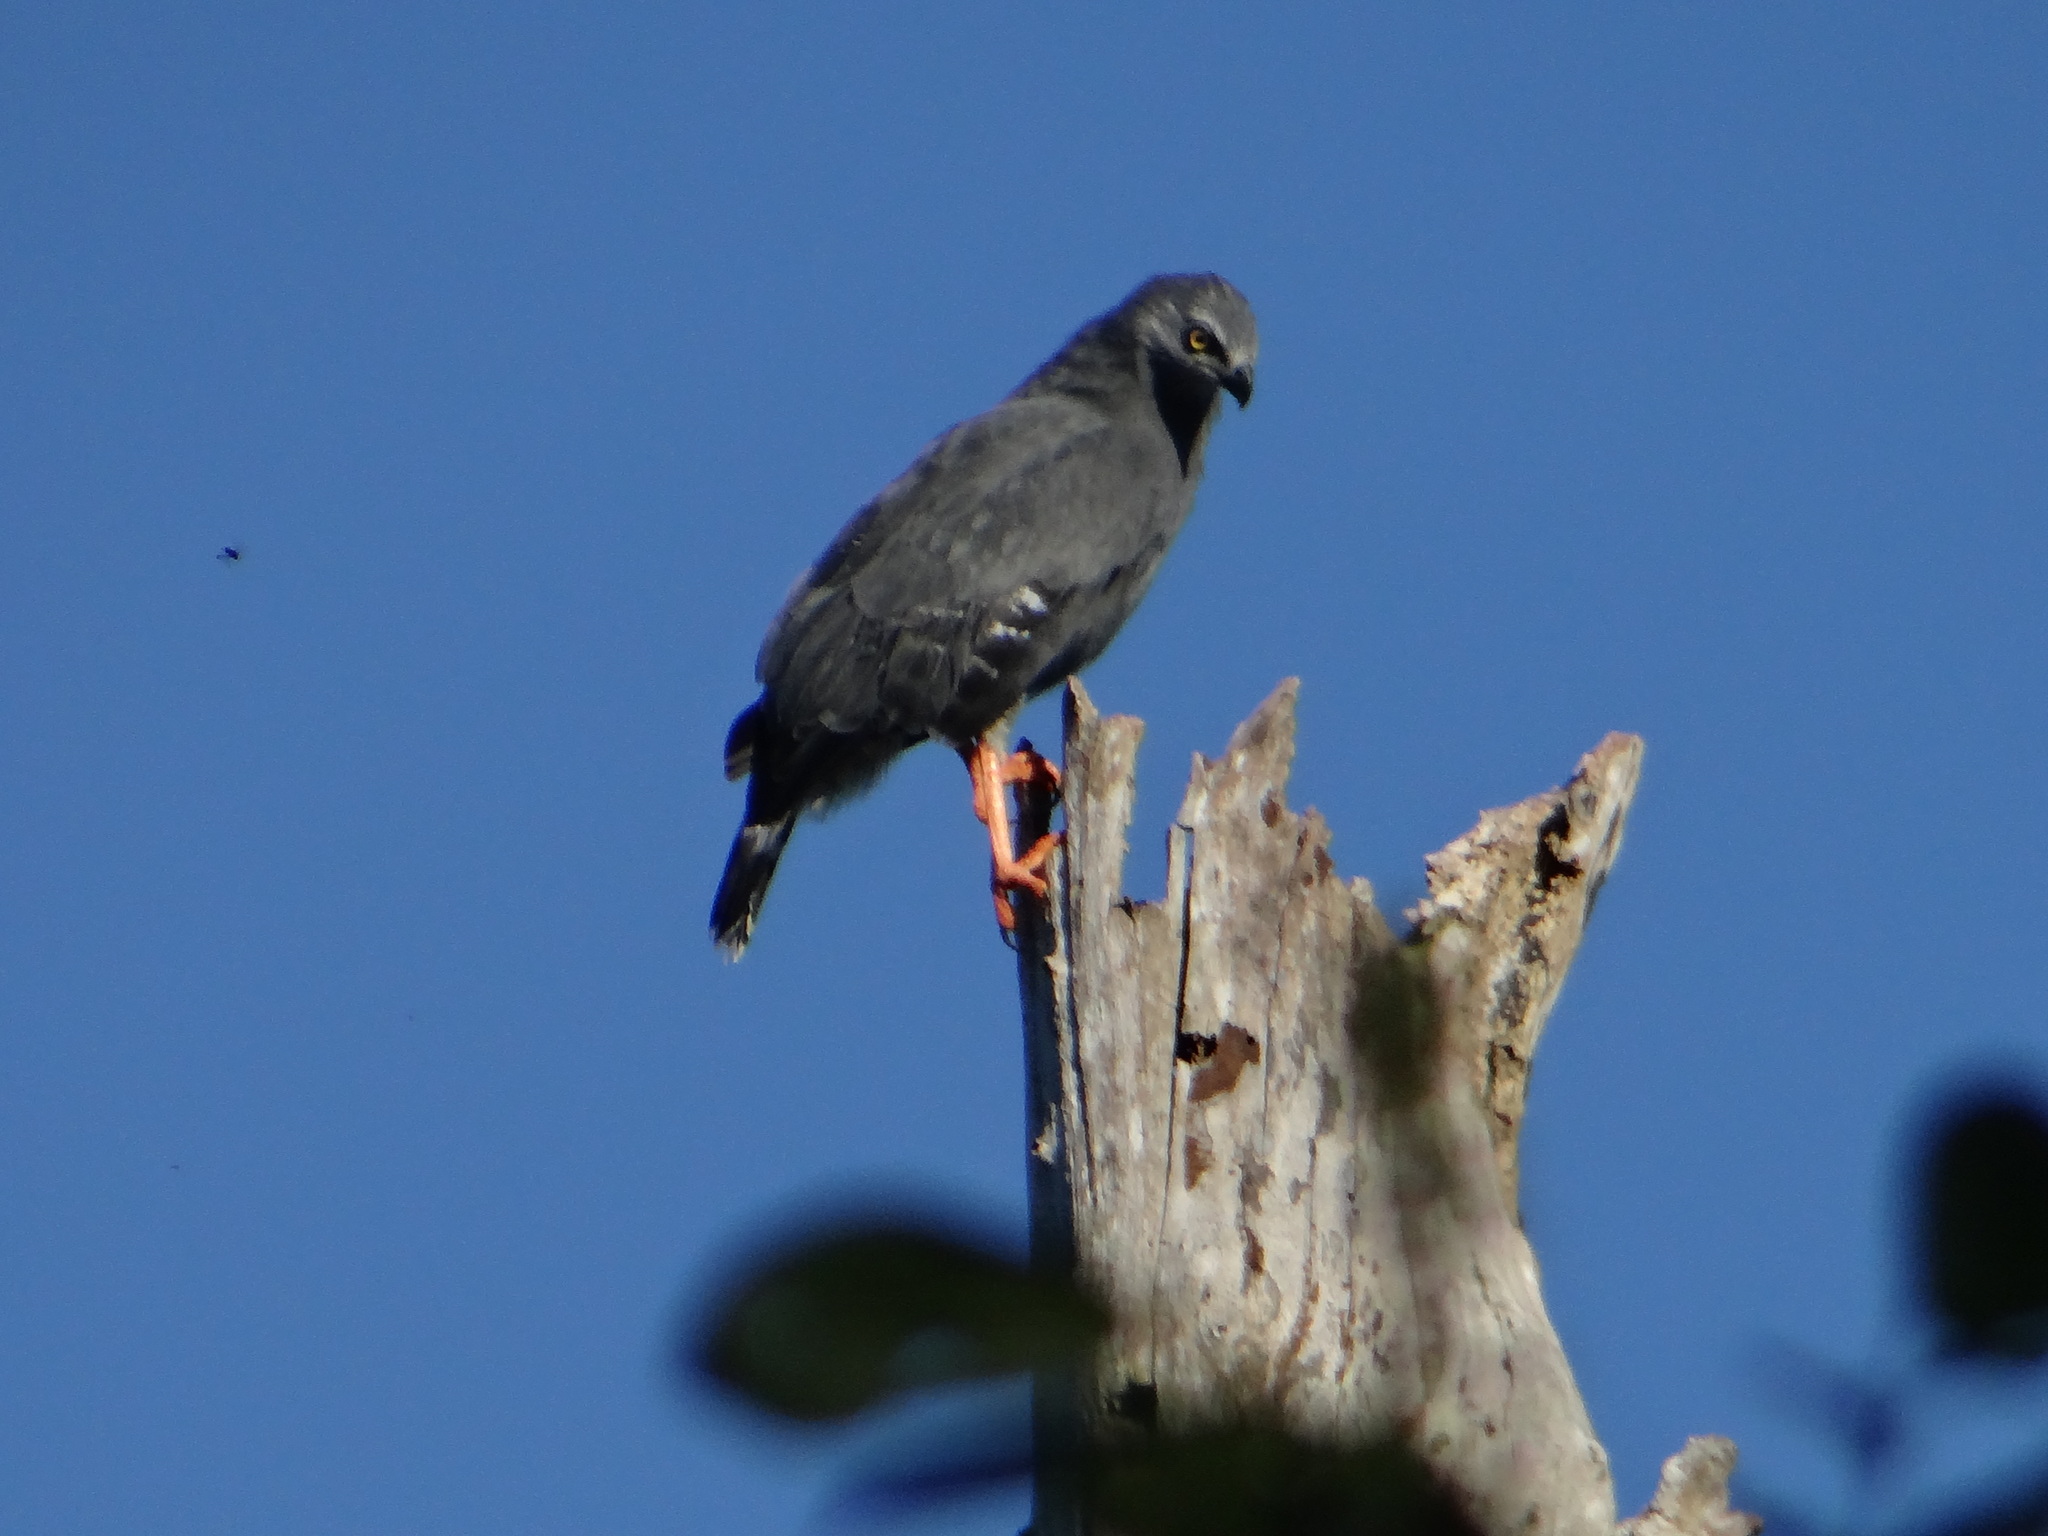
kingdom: Animalia
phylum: Chordata
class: Aves
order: Accipitriformes
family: Accipitridae
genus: Geranospiza
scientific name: Geranospiza caerulescens
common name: Crane hawk
